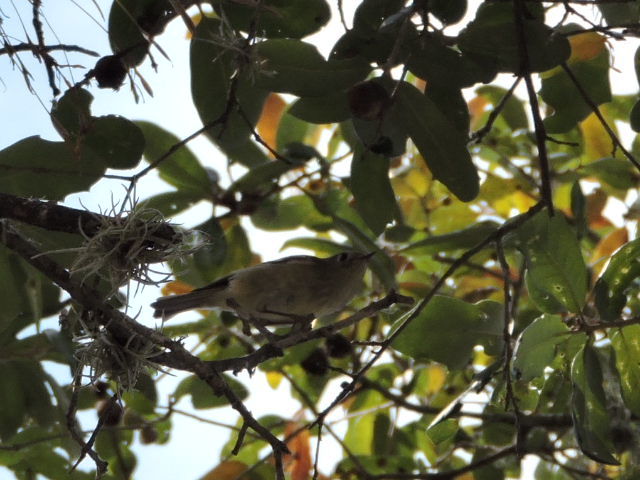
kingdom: Animalia
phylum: Chordata
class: Aves
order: Passeriformes
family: Regulidae
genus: Regulus
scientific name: Regulus calendula
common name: Ruby-crowned kinglet
